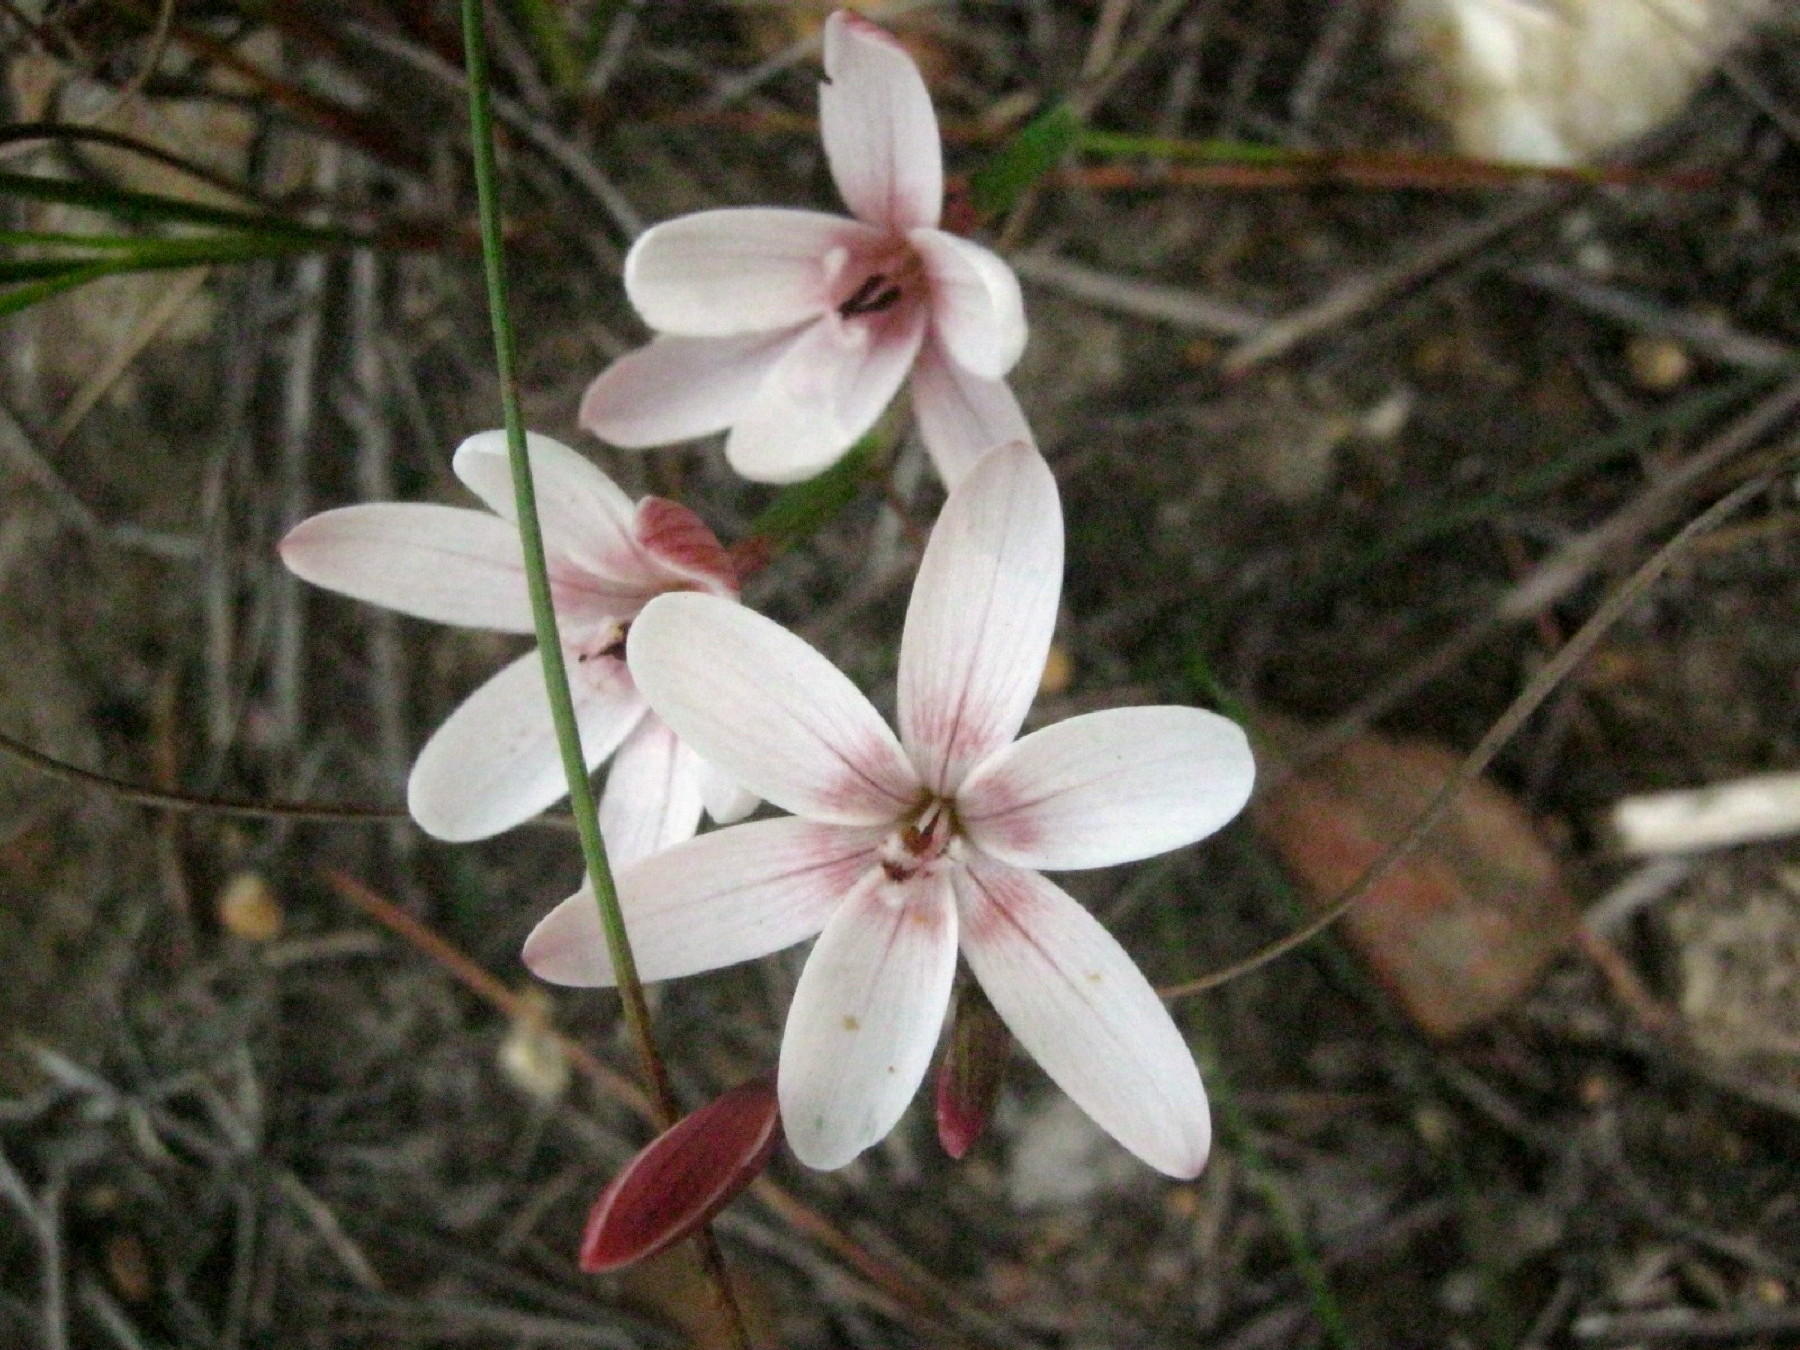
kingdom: Plantae
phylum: Tracheophyta
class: Liliopsida
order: Asparagales
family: Iridaceae
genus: Geissorhiza
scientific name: Geissorhiza ovata
